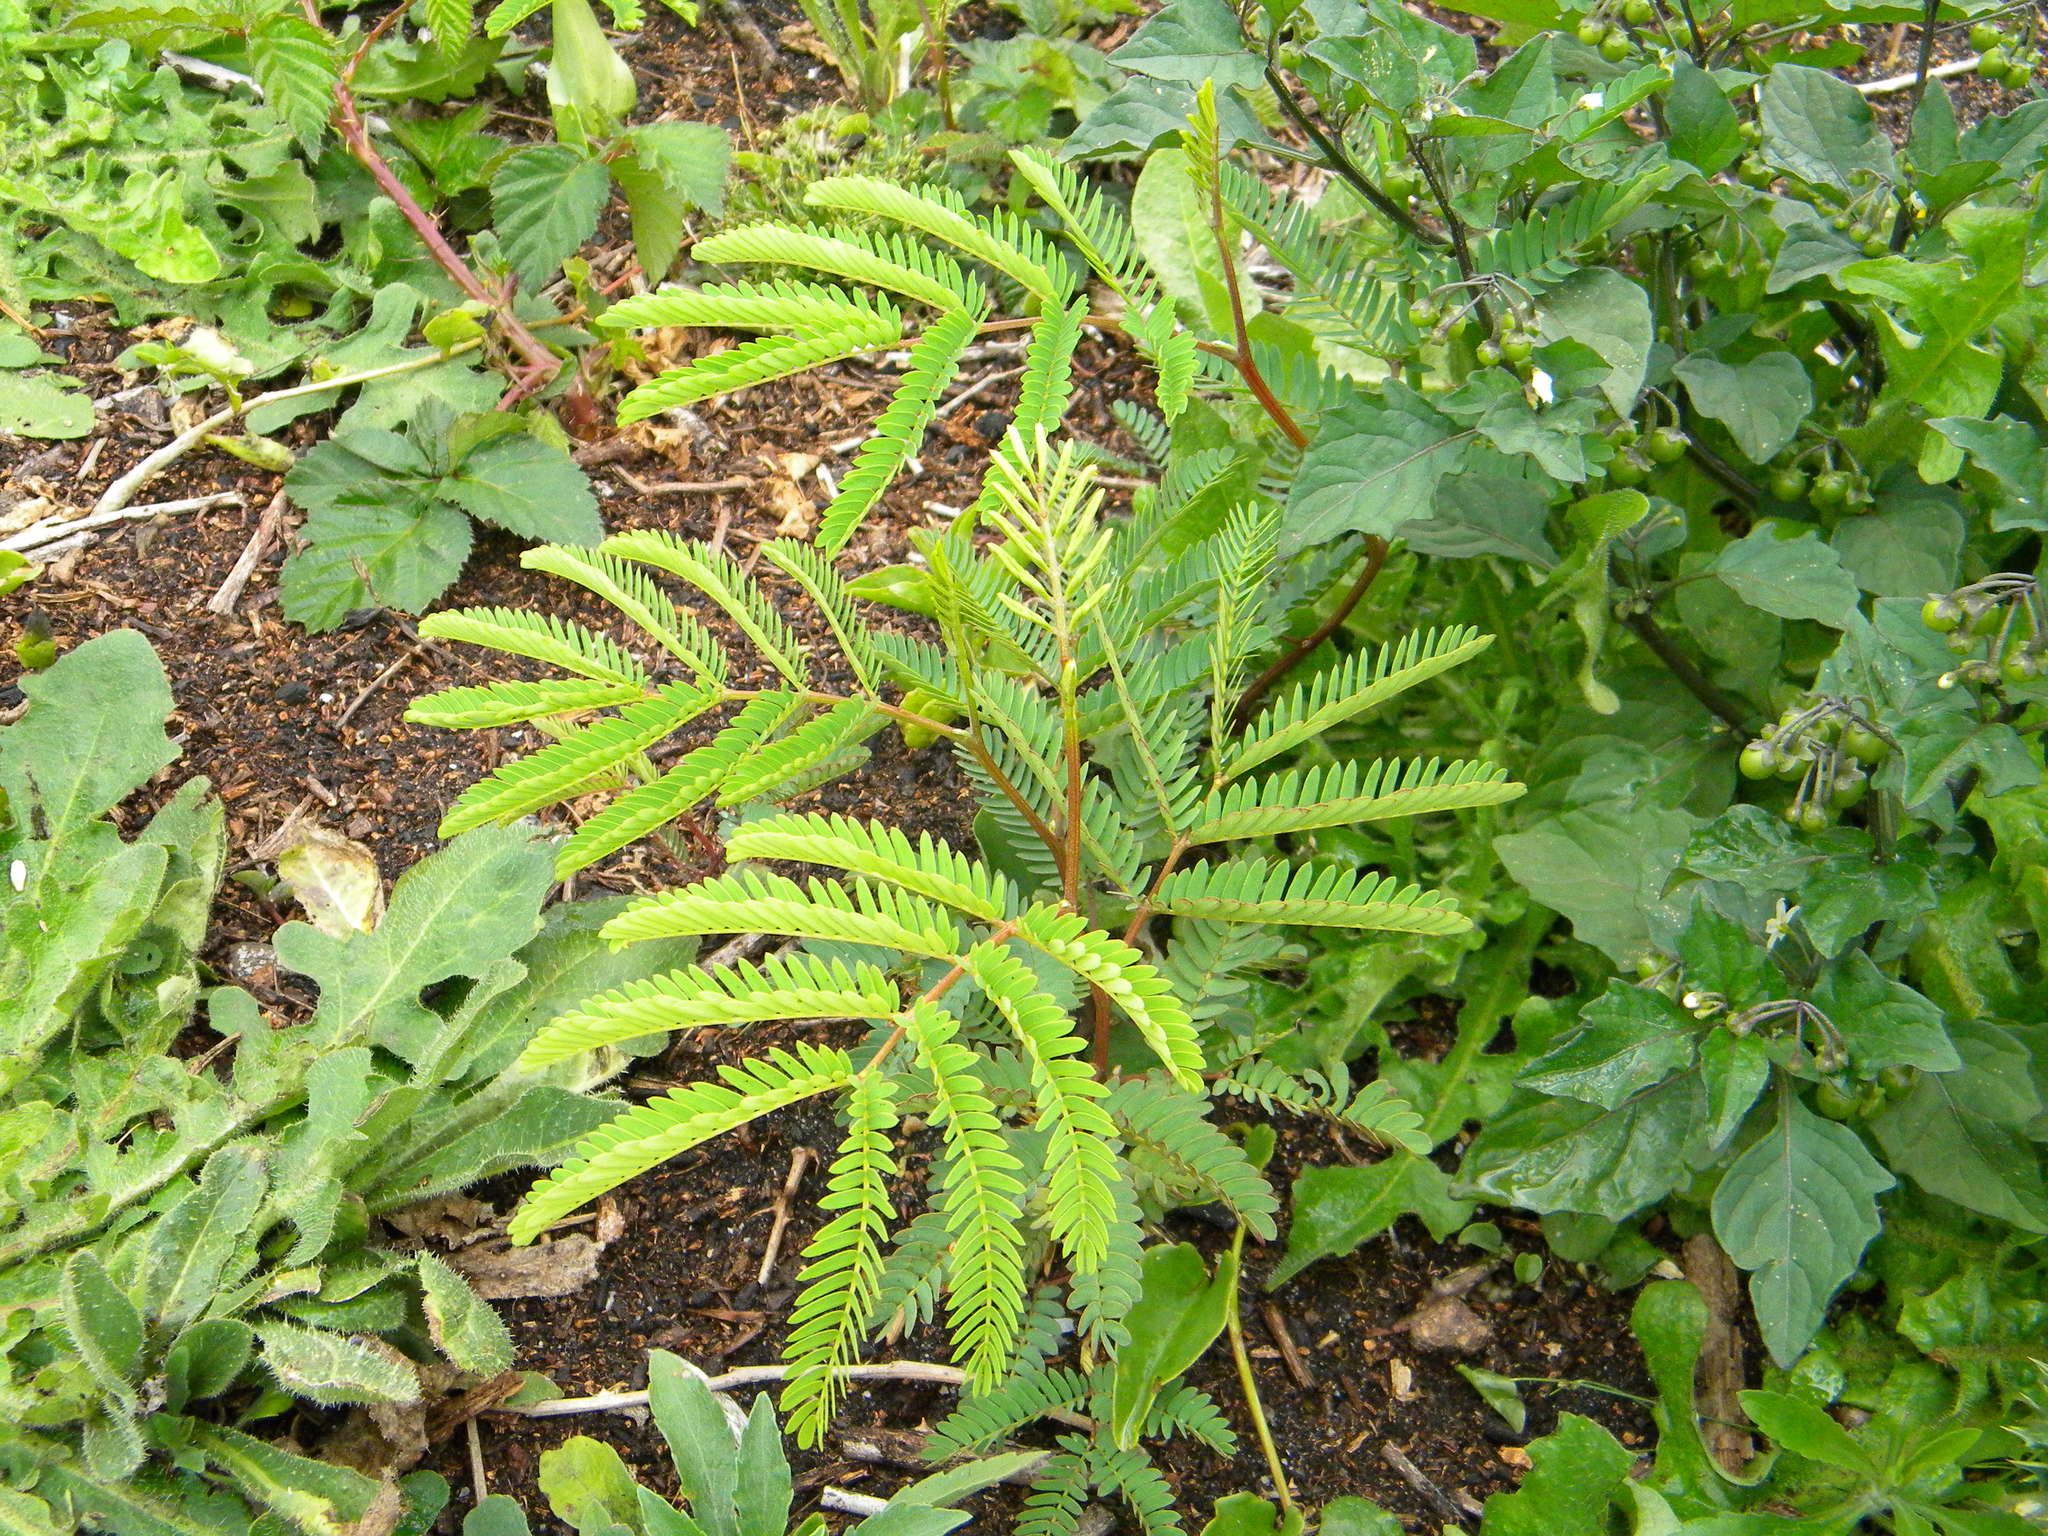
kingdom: Plantae
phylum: Tracheophyta
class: Magnoliopsida
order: Fabales
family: Fabaceae
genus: Paraserianthes
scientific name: Paraserianthes lophantha
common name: Plume albizia
